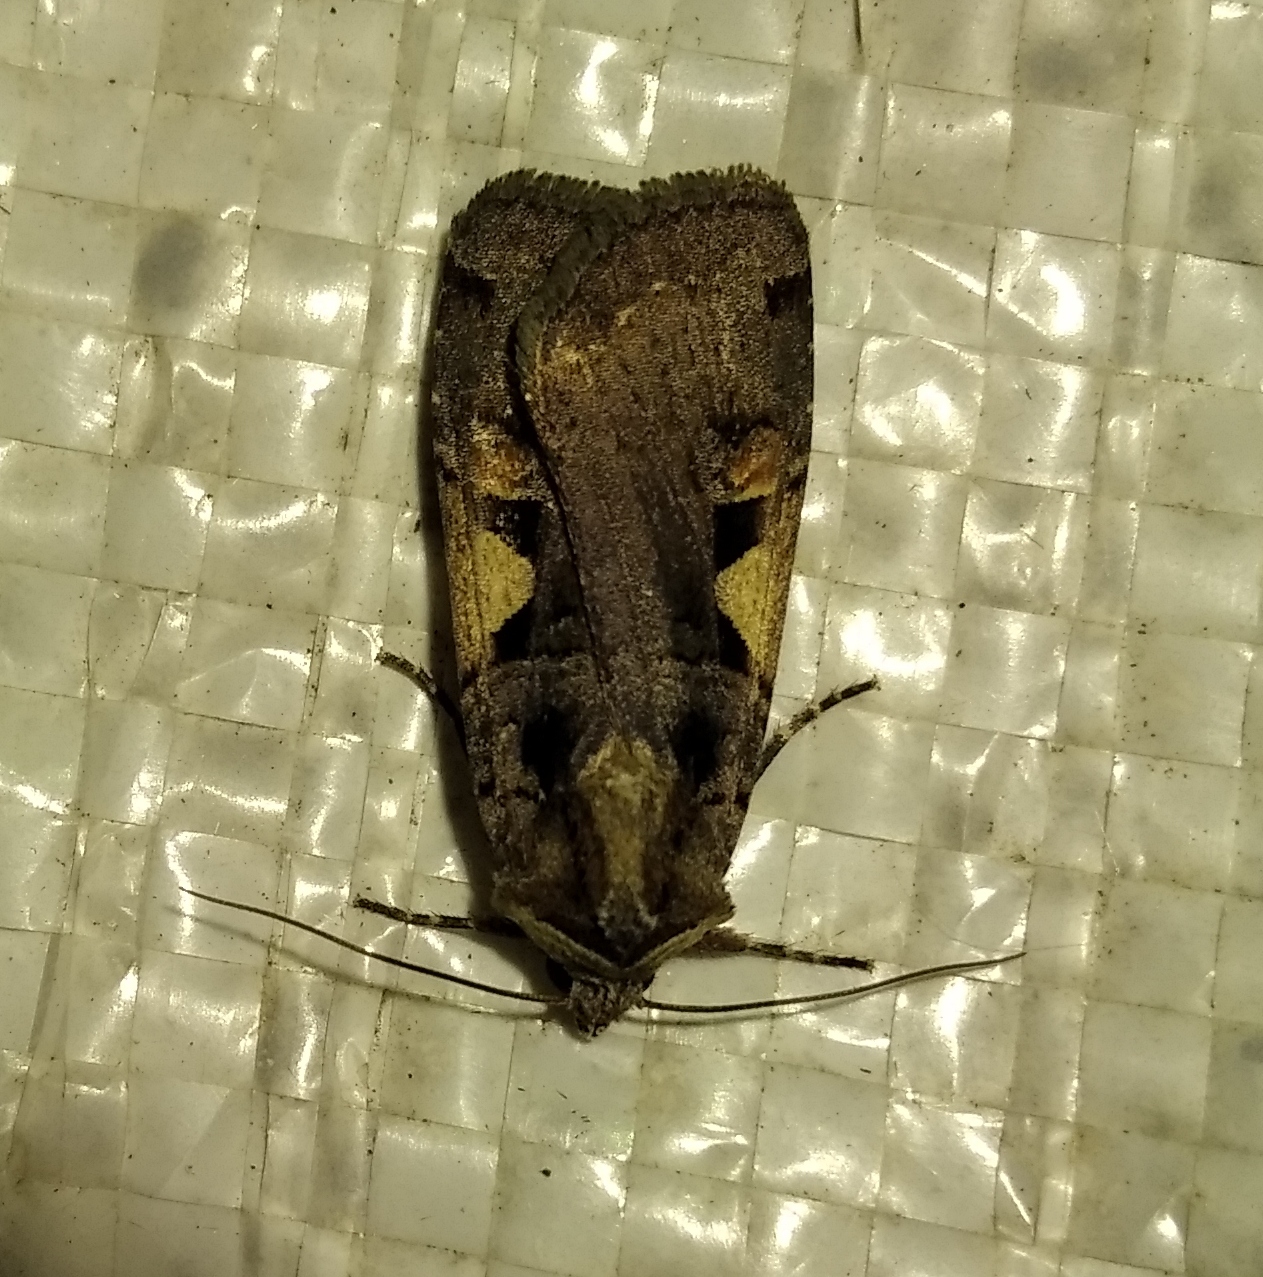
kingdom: Animalia
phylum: Arthropoda
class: Insecta
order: Lepidoptera
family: Noctuidae
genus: Xestia
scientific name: Xestia c-nigrum
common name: Setaceous hebrew character
